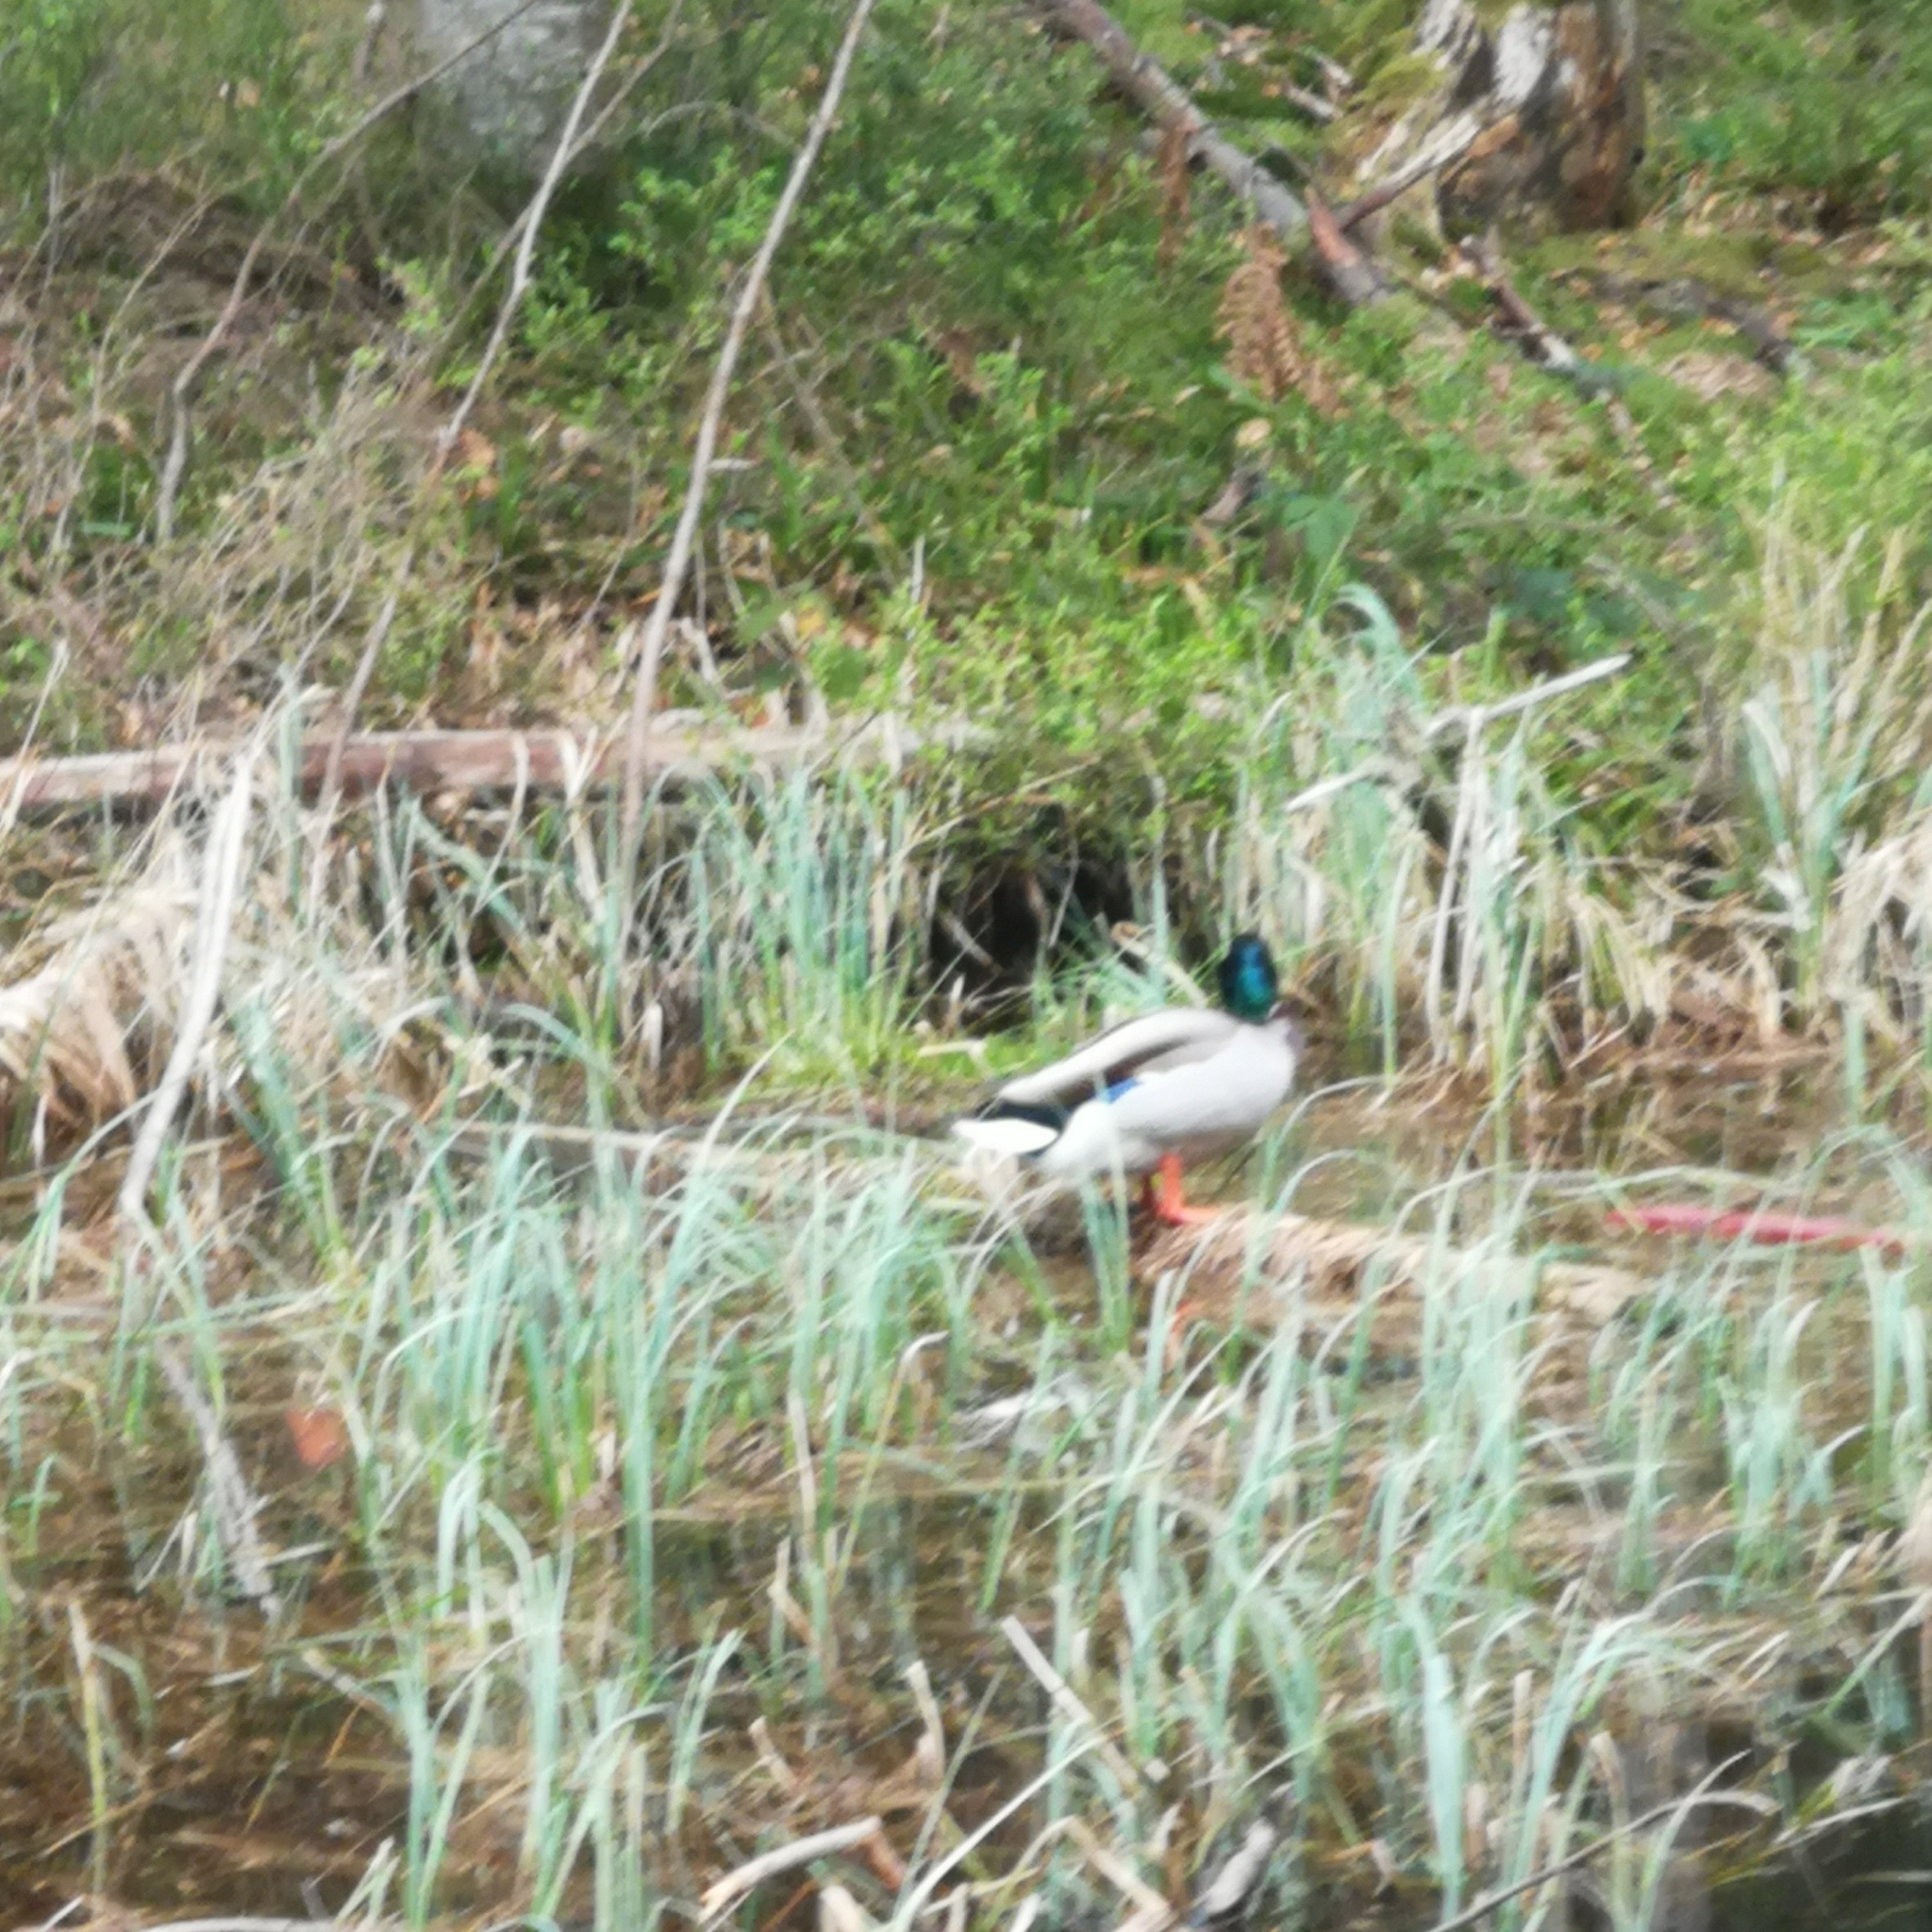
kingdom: Animalia
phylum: Chordata
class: Aves
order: Anseriformes
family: Anatidae
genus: Anas
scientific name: Anas platyrhynchos
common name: Mallard
